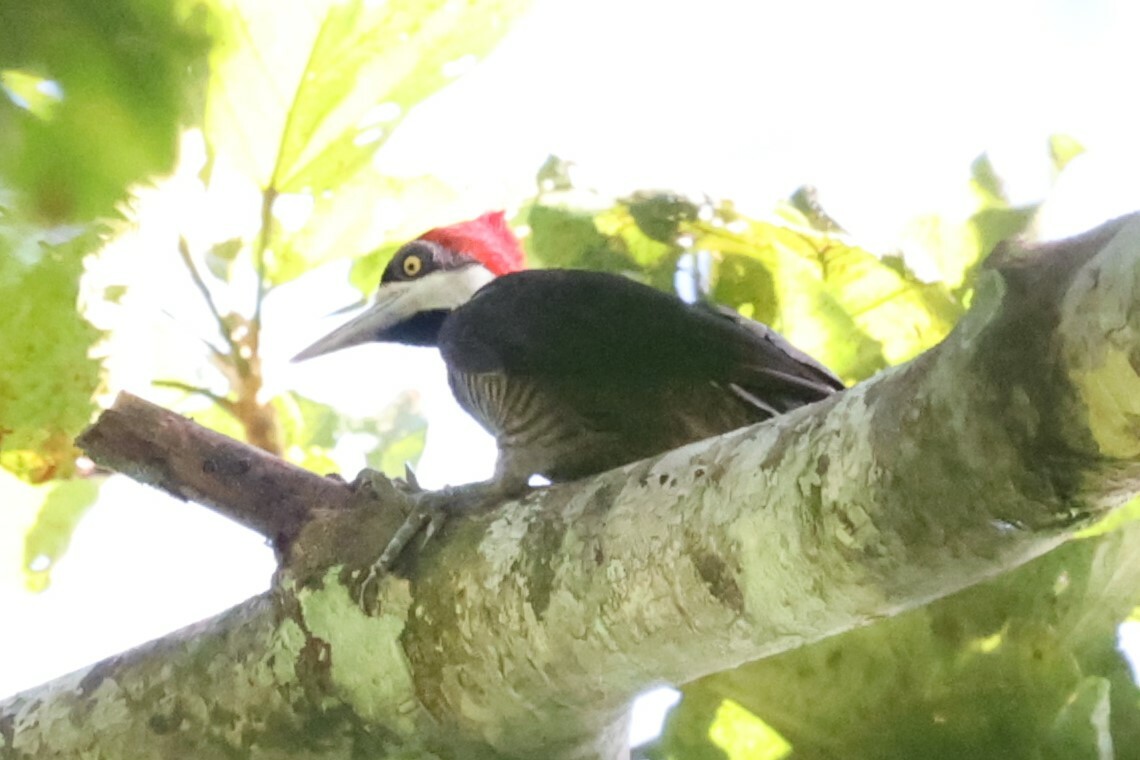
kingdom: Animalia
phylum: Chordata
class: Aves
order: Piciformes
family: Picidae
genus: Campephilus
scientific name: Campephilus melanoleucos
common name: Crimson-crested woodpecker
